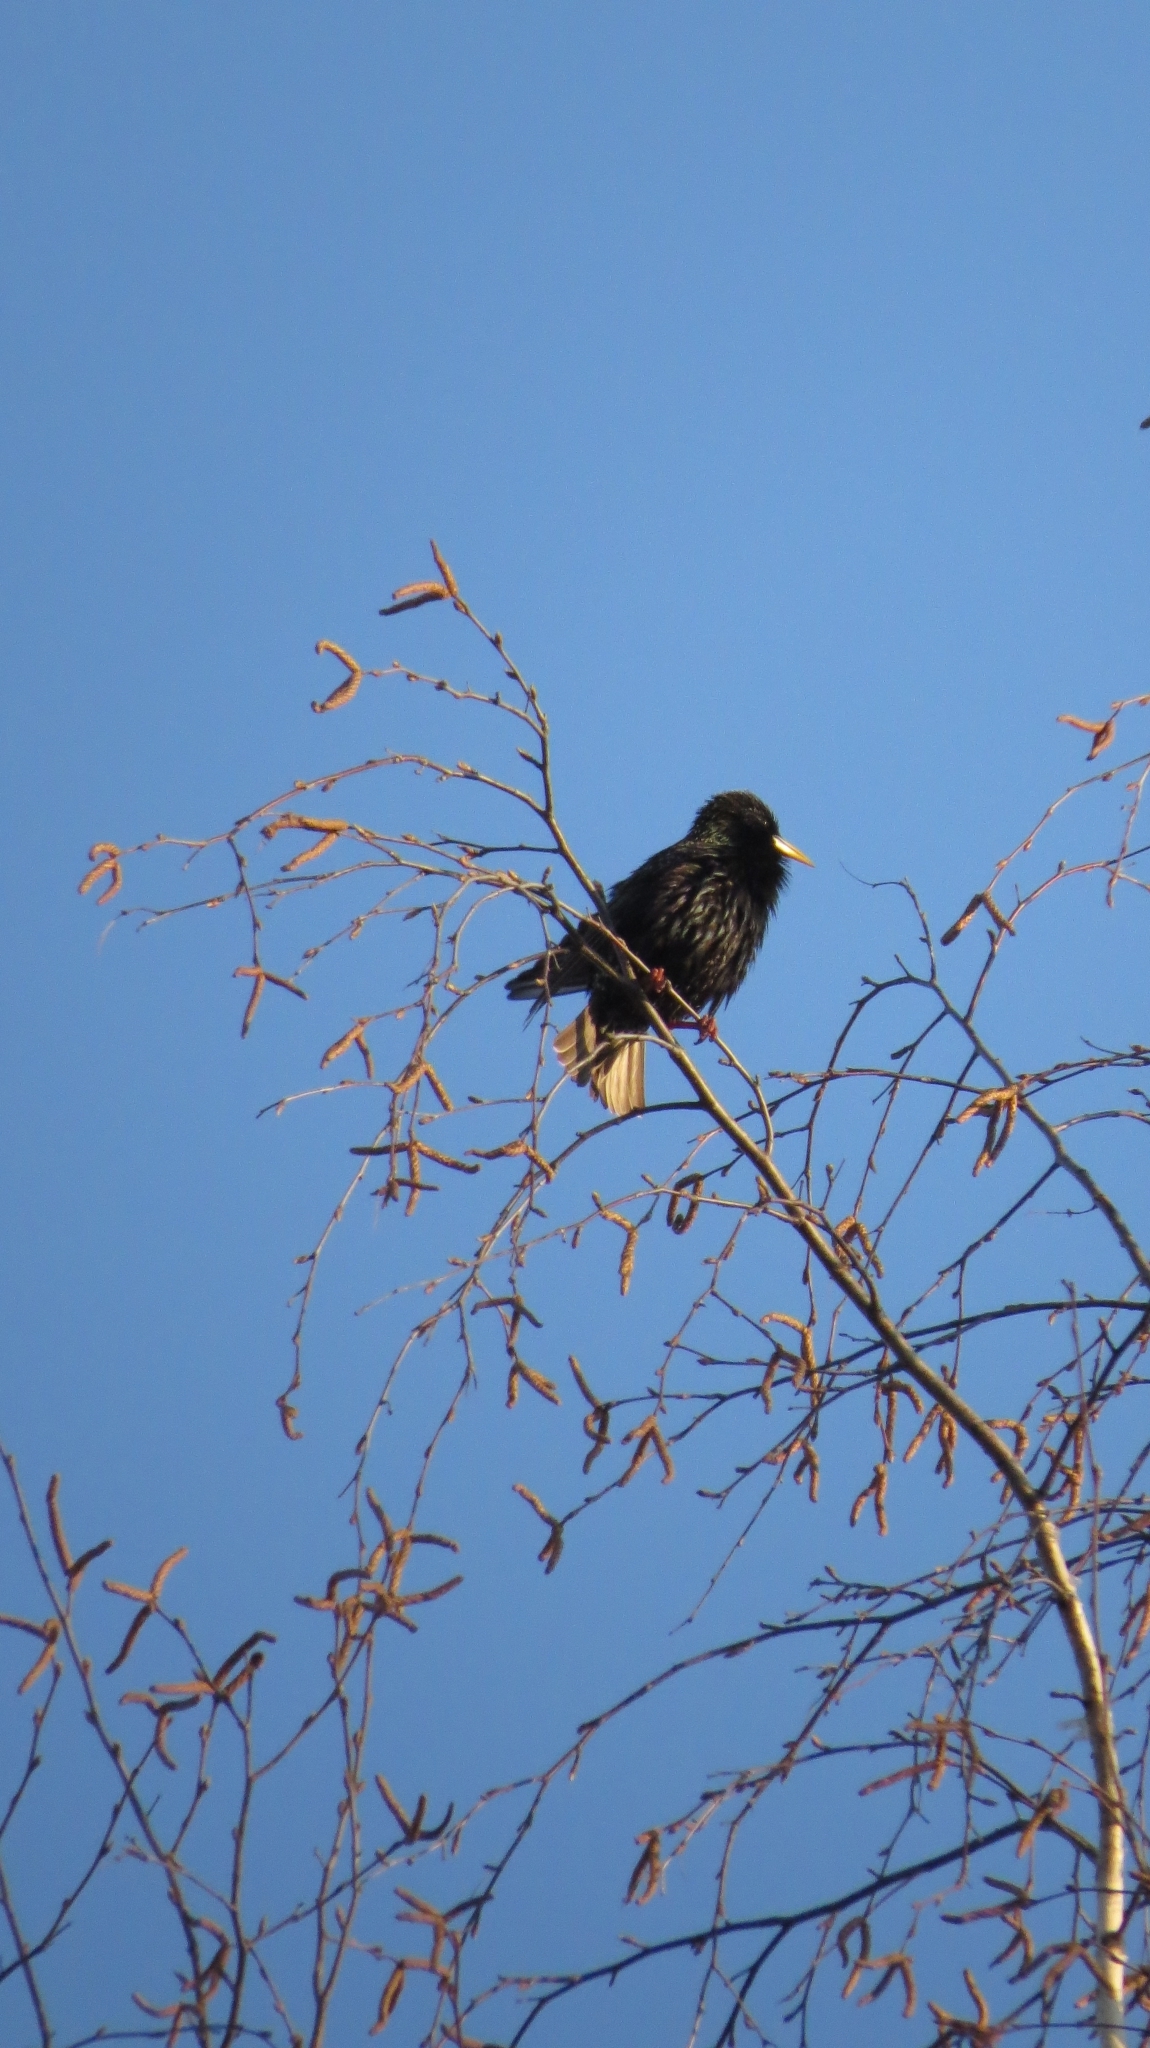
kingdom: Animalia
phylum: Chordata
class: Aves
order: Passeriformes
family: Sturnidae
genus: Sturnus
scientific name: Sturnus vulgaris
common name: Common starling
